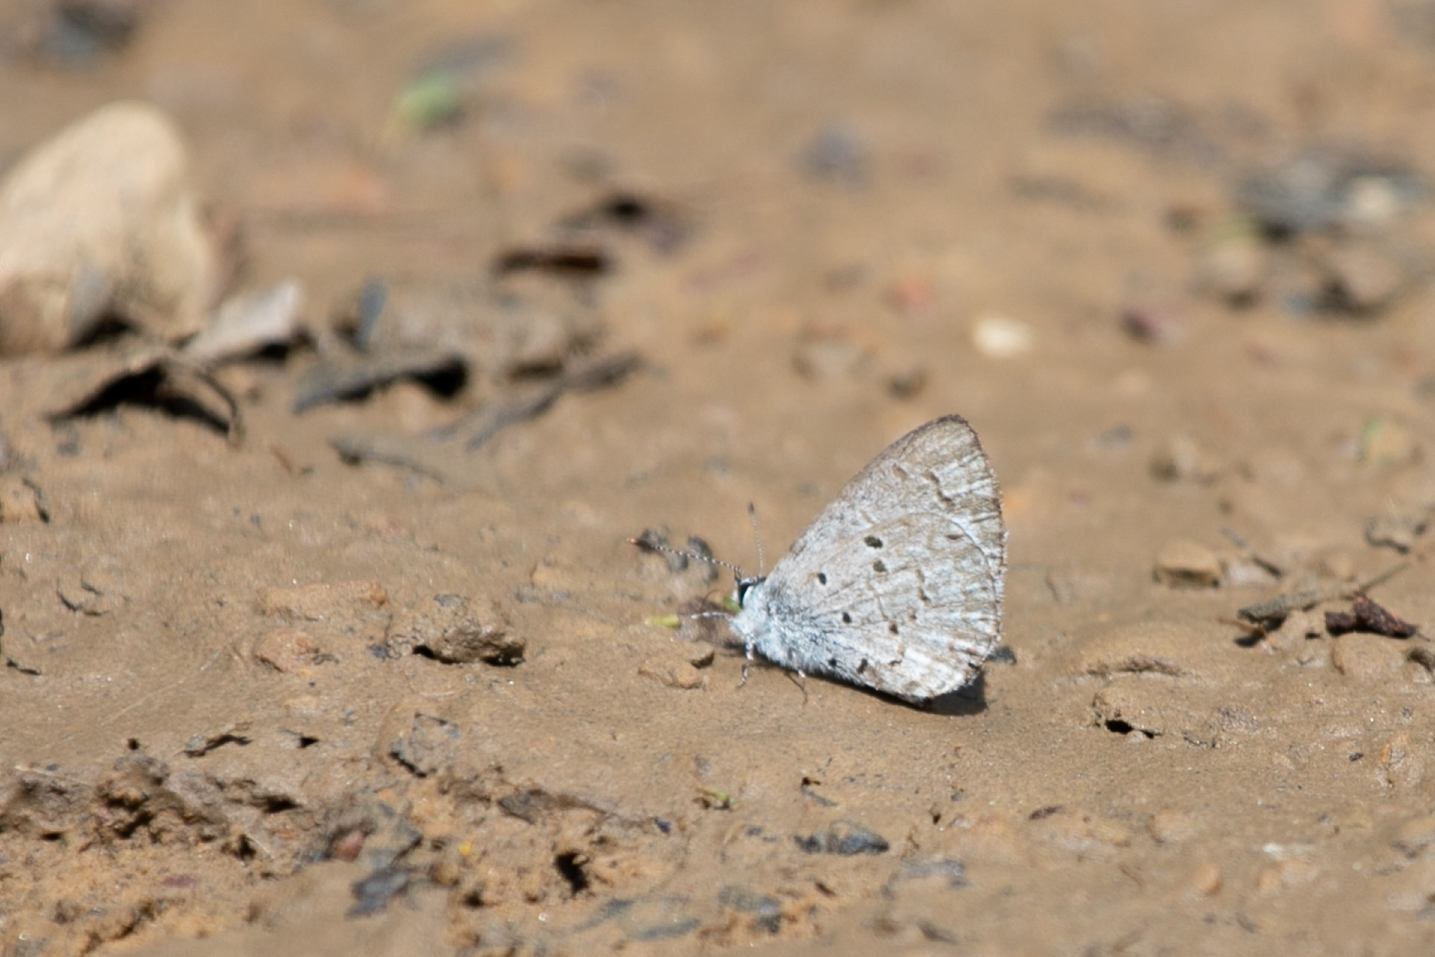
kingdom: Animalia
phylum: Arthropoda
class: Insecta
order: Lepidoptera
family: Lycaenidae
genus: Celastrina
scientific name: Celastrina ladon
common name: Spring azure
